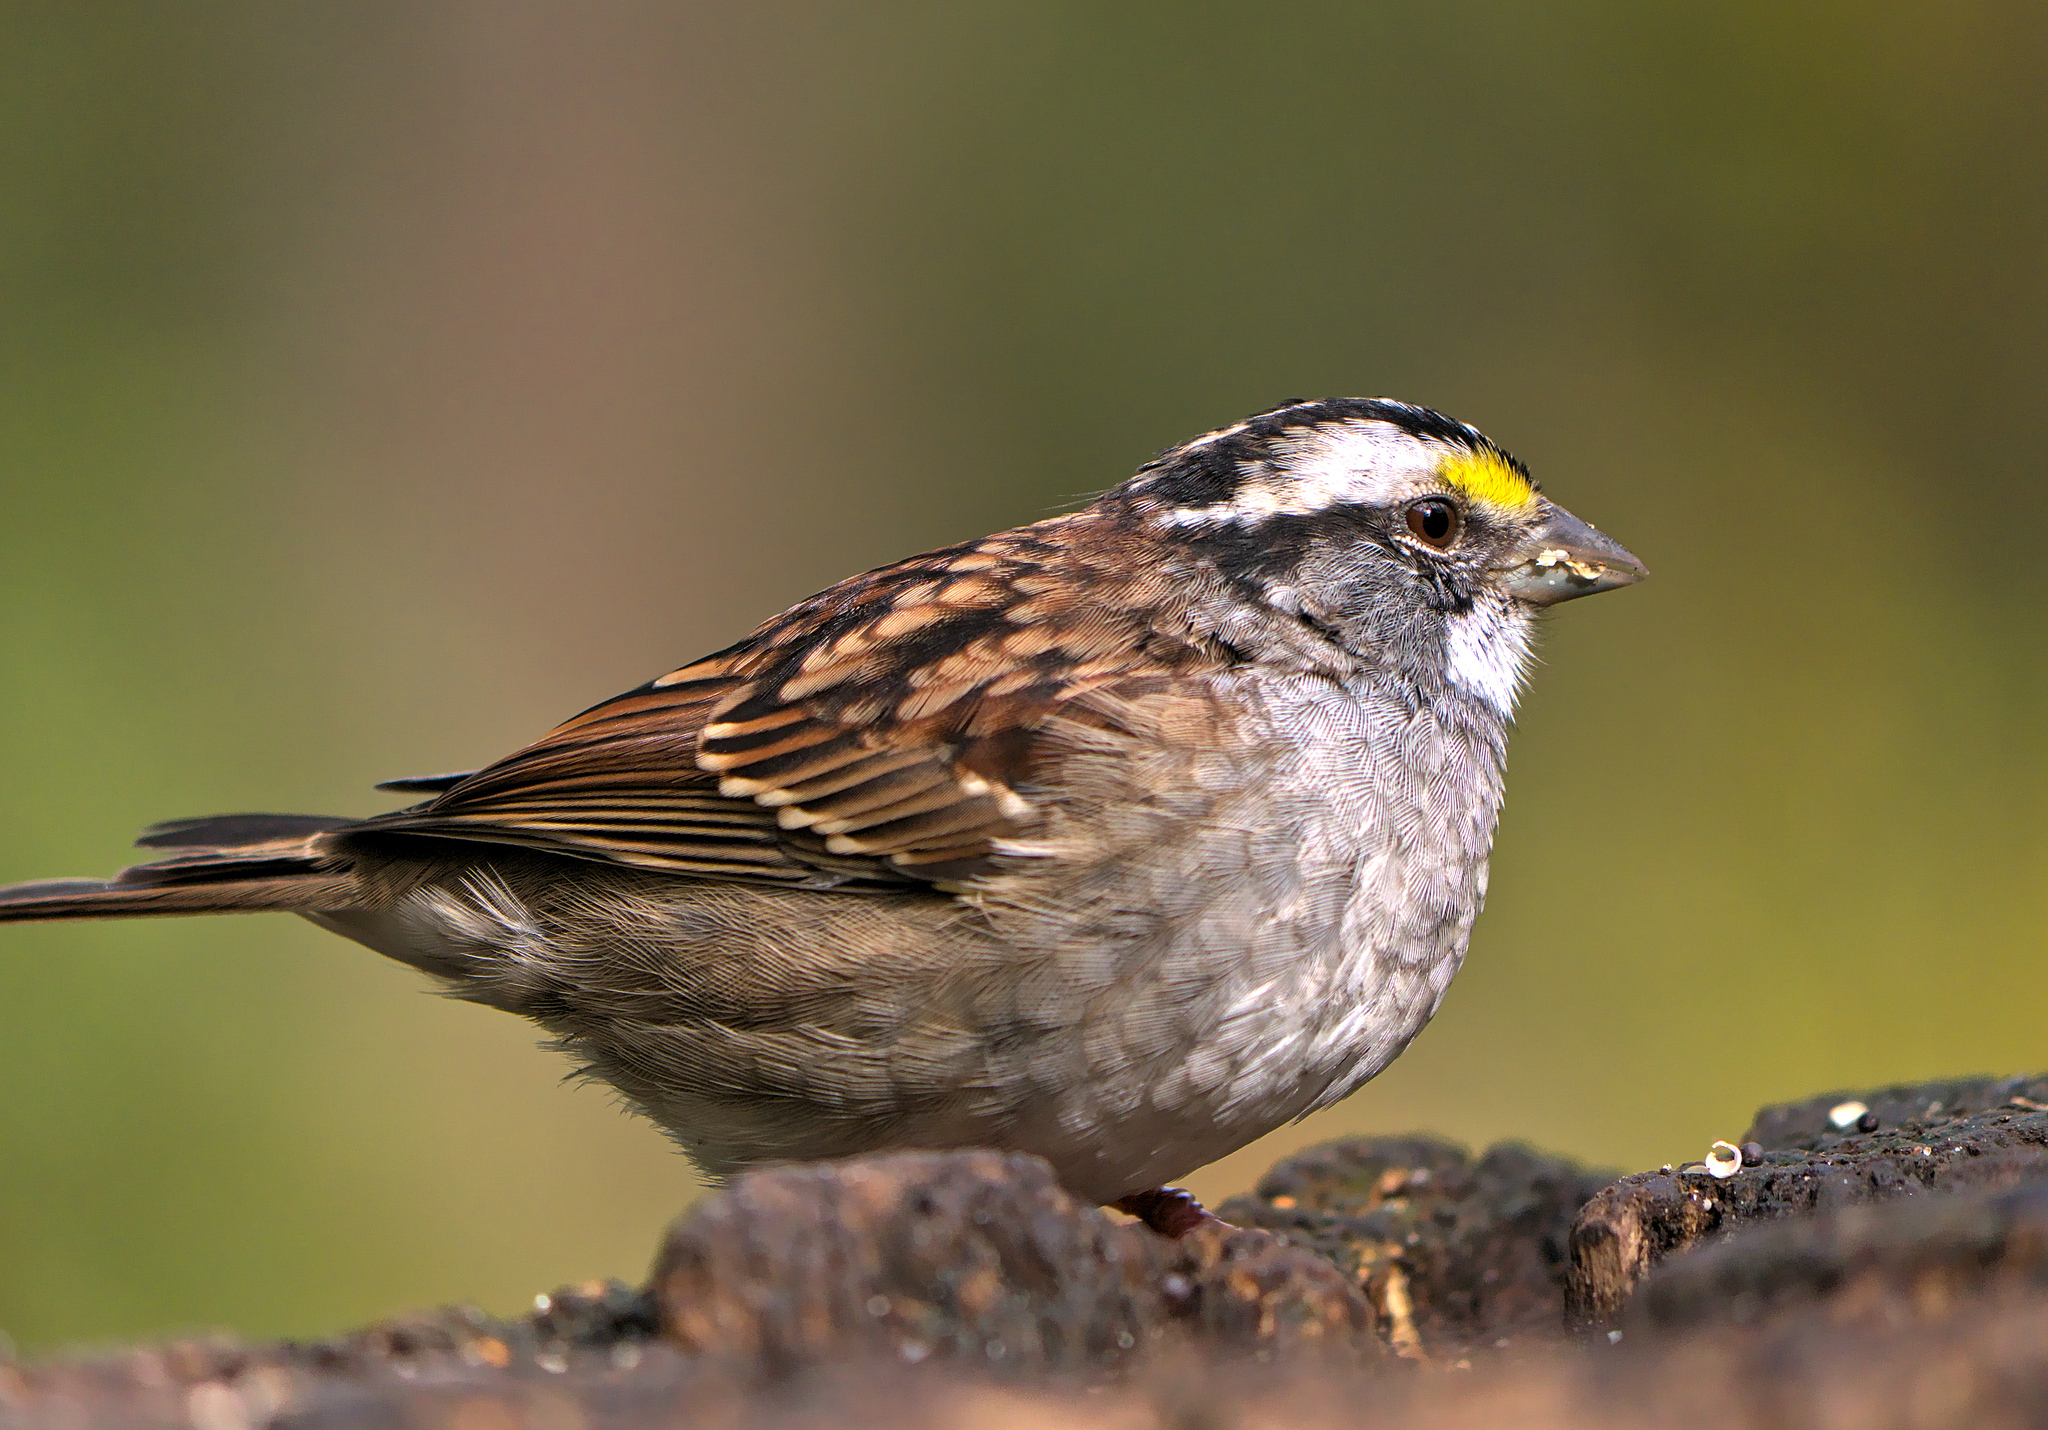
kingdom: Animalia
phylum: Chordata
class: Aves
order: Passeriformes
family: Passerellidae
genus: Zonotrichia
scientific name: Zonotrichia albicollis
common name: White-throated sparrow
